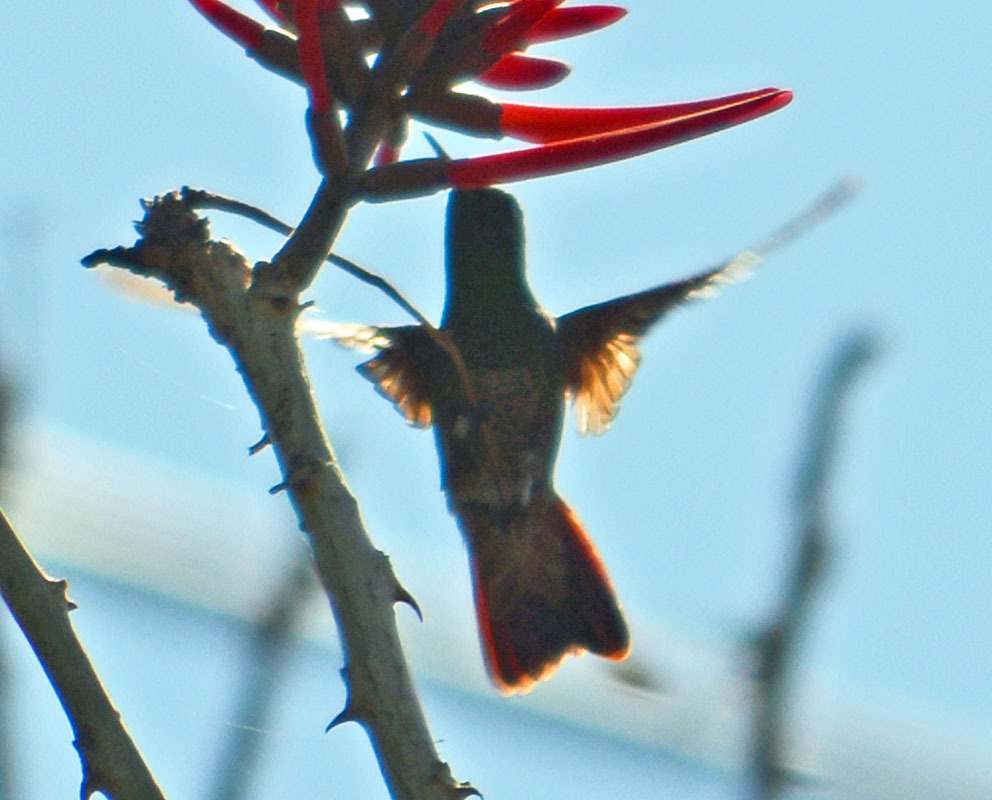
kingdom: Animalia
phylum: Chordata
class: Aves
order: Apodiformes
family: Trochilidae
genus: Saucerottia
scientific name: Saucerottia beryllina
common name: Berylline hummingbird
